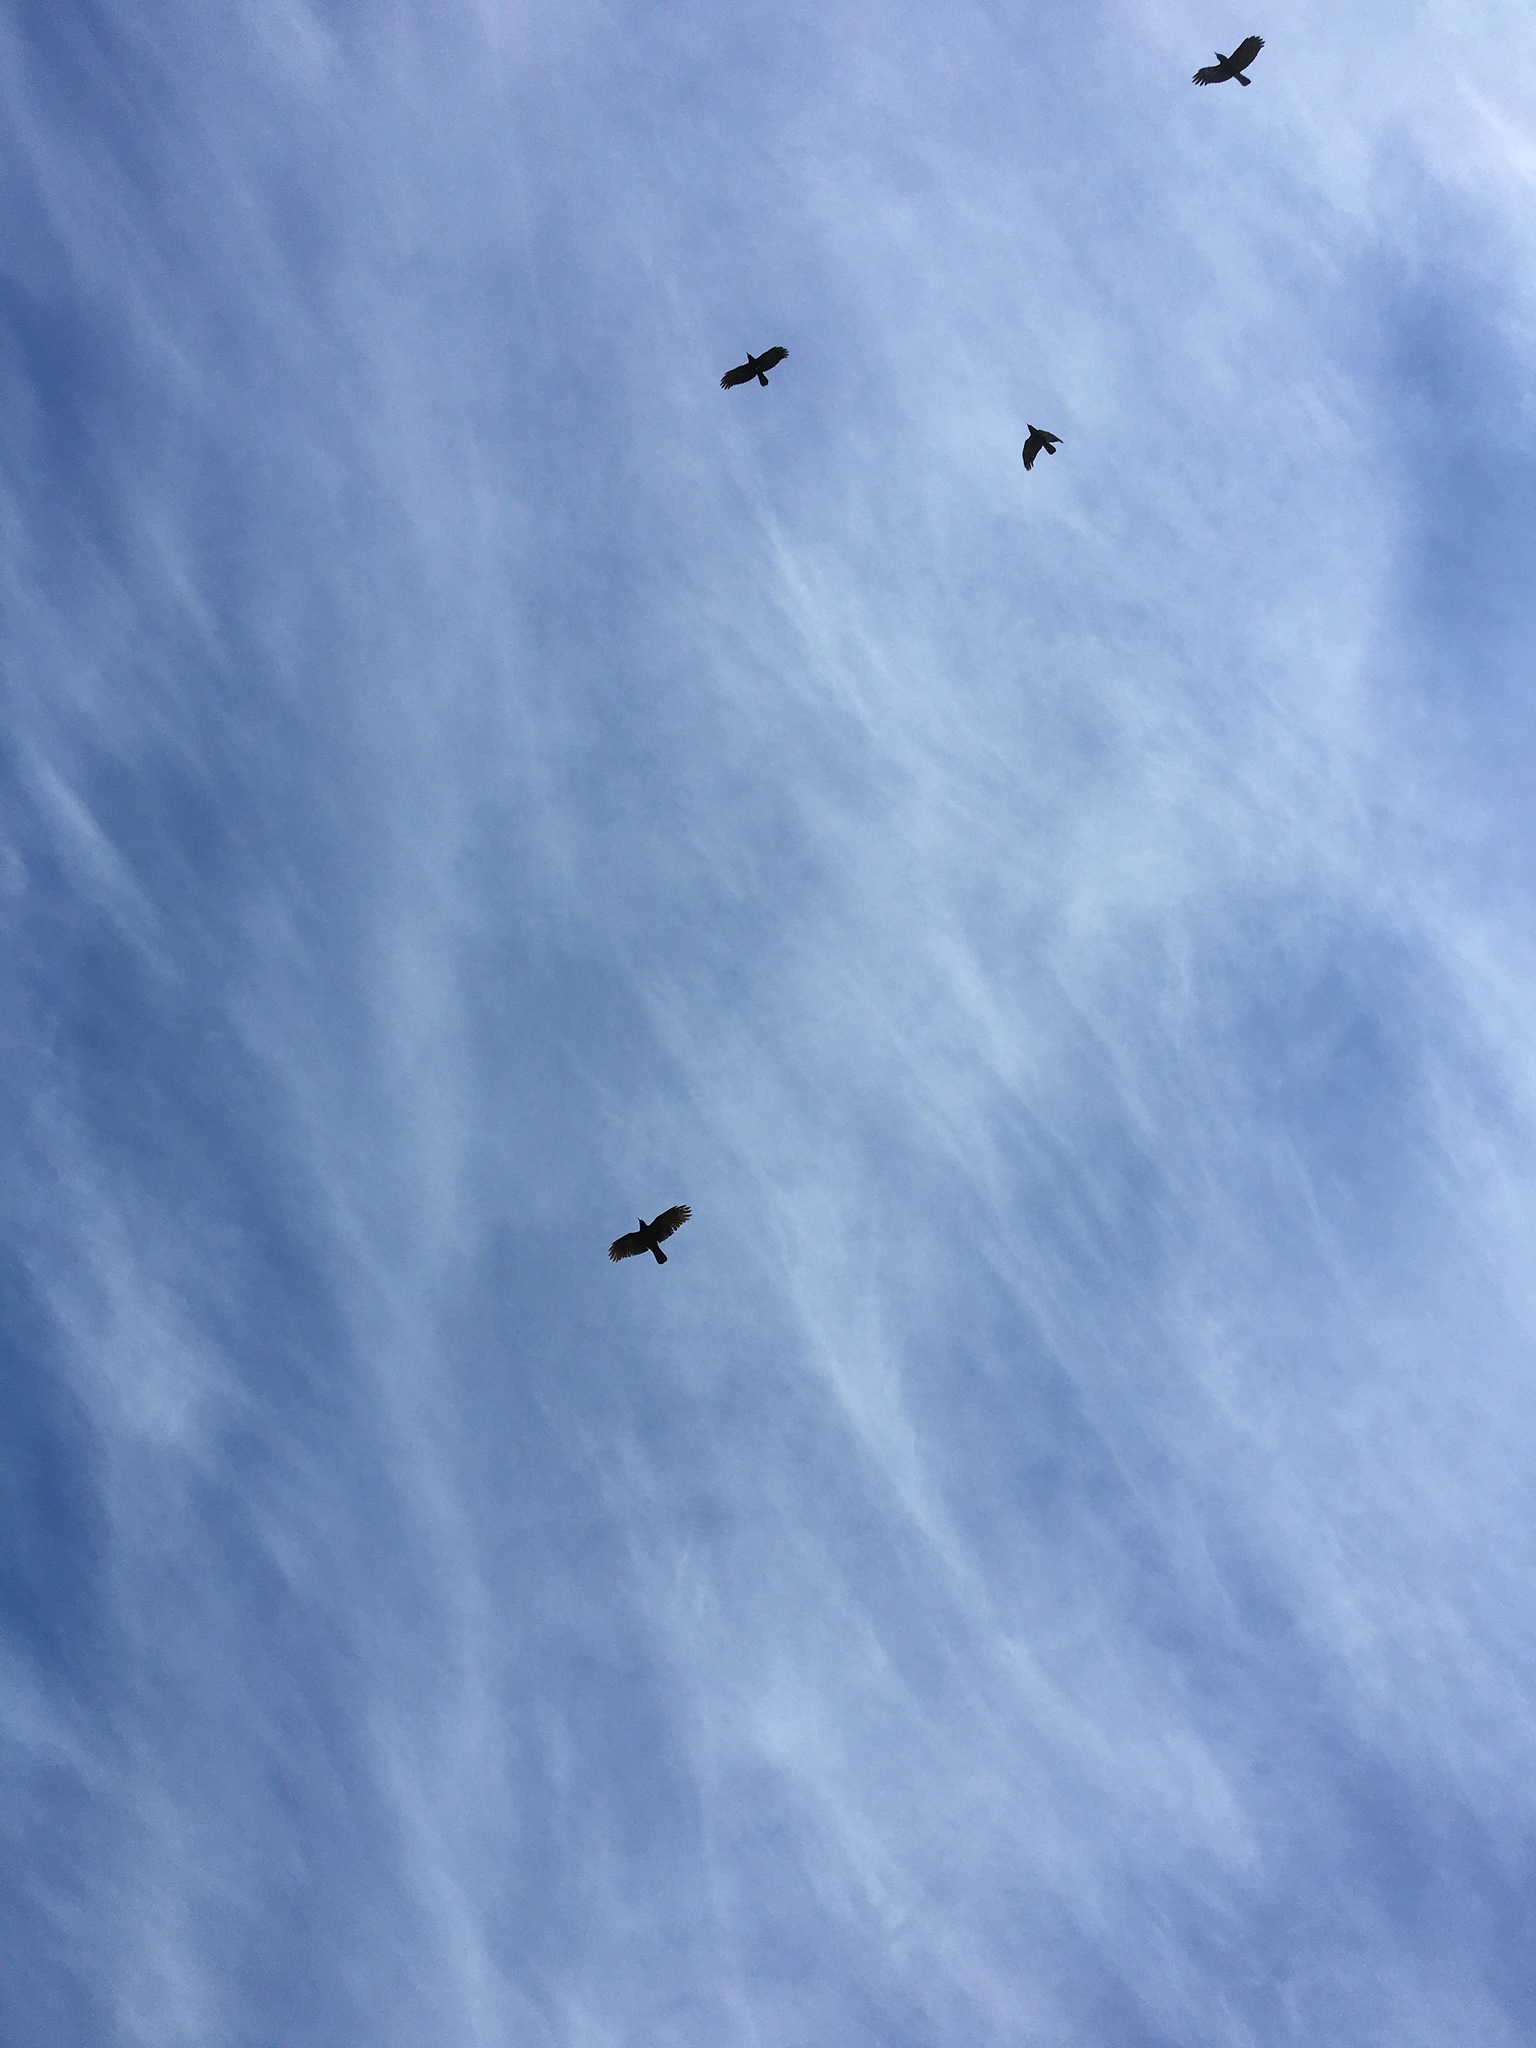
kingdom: Animalia
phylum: Chordata
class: Aves
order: Passeriformes
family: Corvidae
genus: Corvus
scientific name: Corvus brachyrhynchos
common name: American crow
